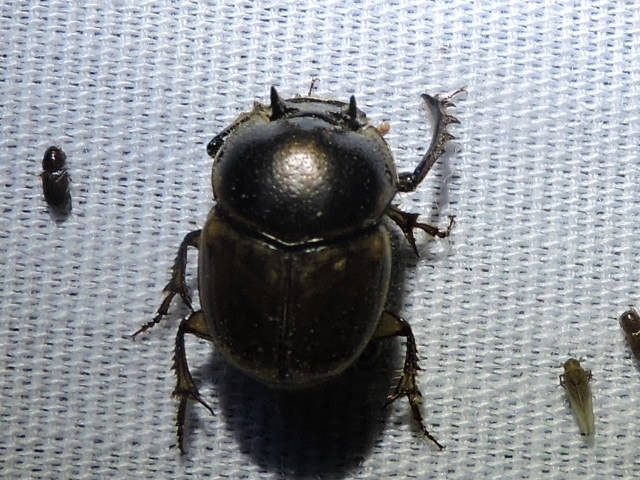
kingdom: Animalia
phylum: Arthropoda
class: Insecta
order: Coleoptera
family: Scarabaeidae
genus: Digitonthophagus
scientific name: Digitonthophagus gazella
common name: Brown dung beetle
